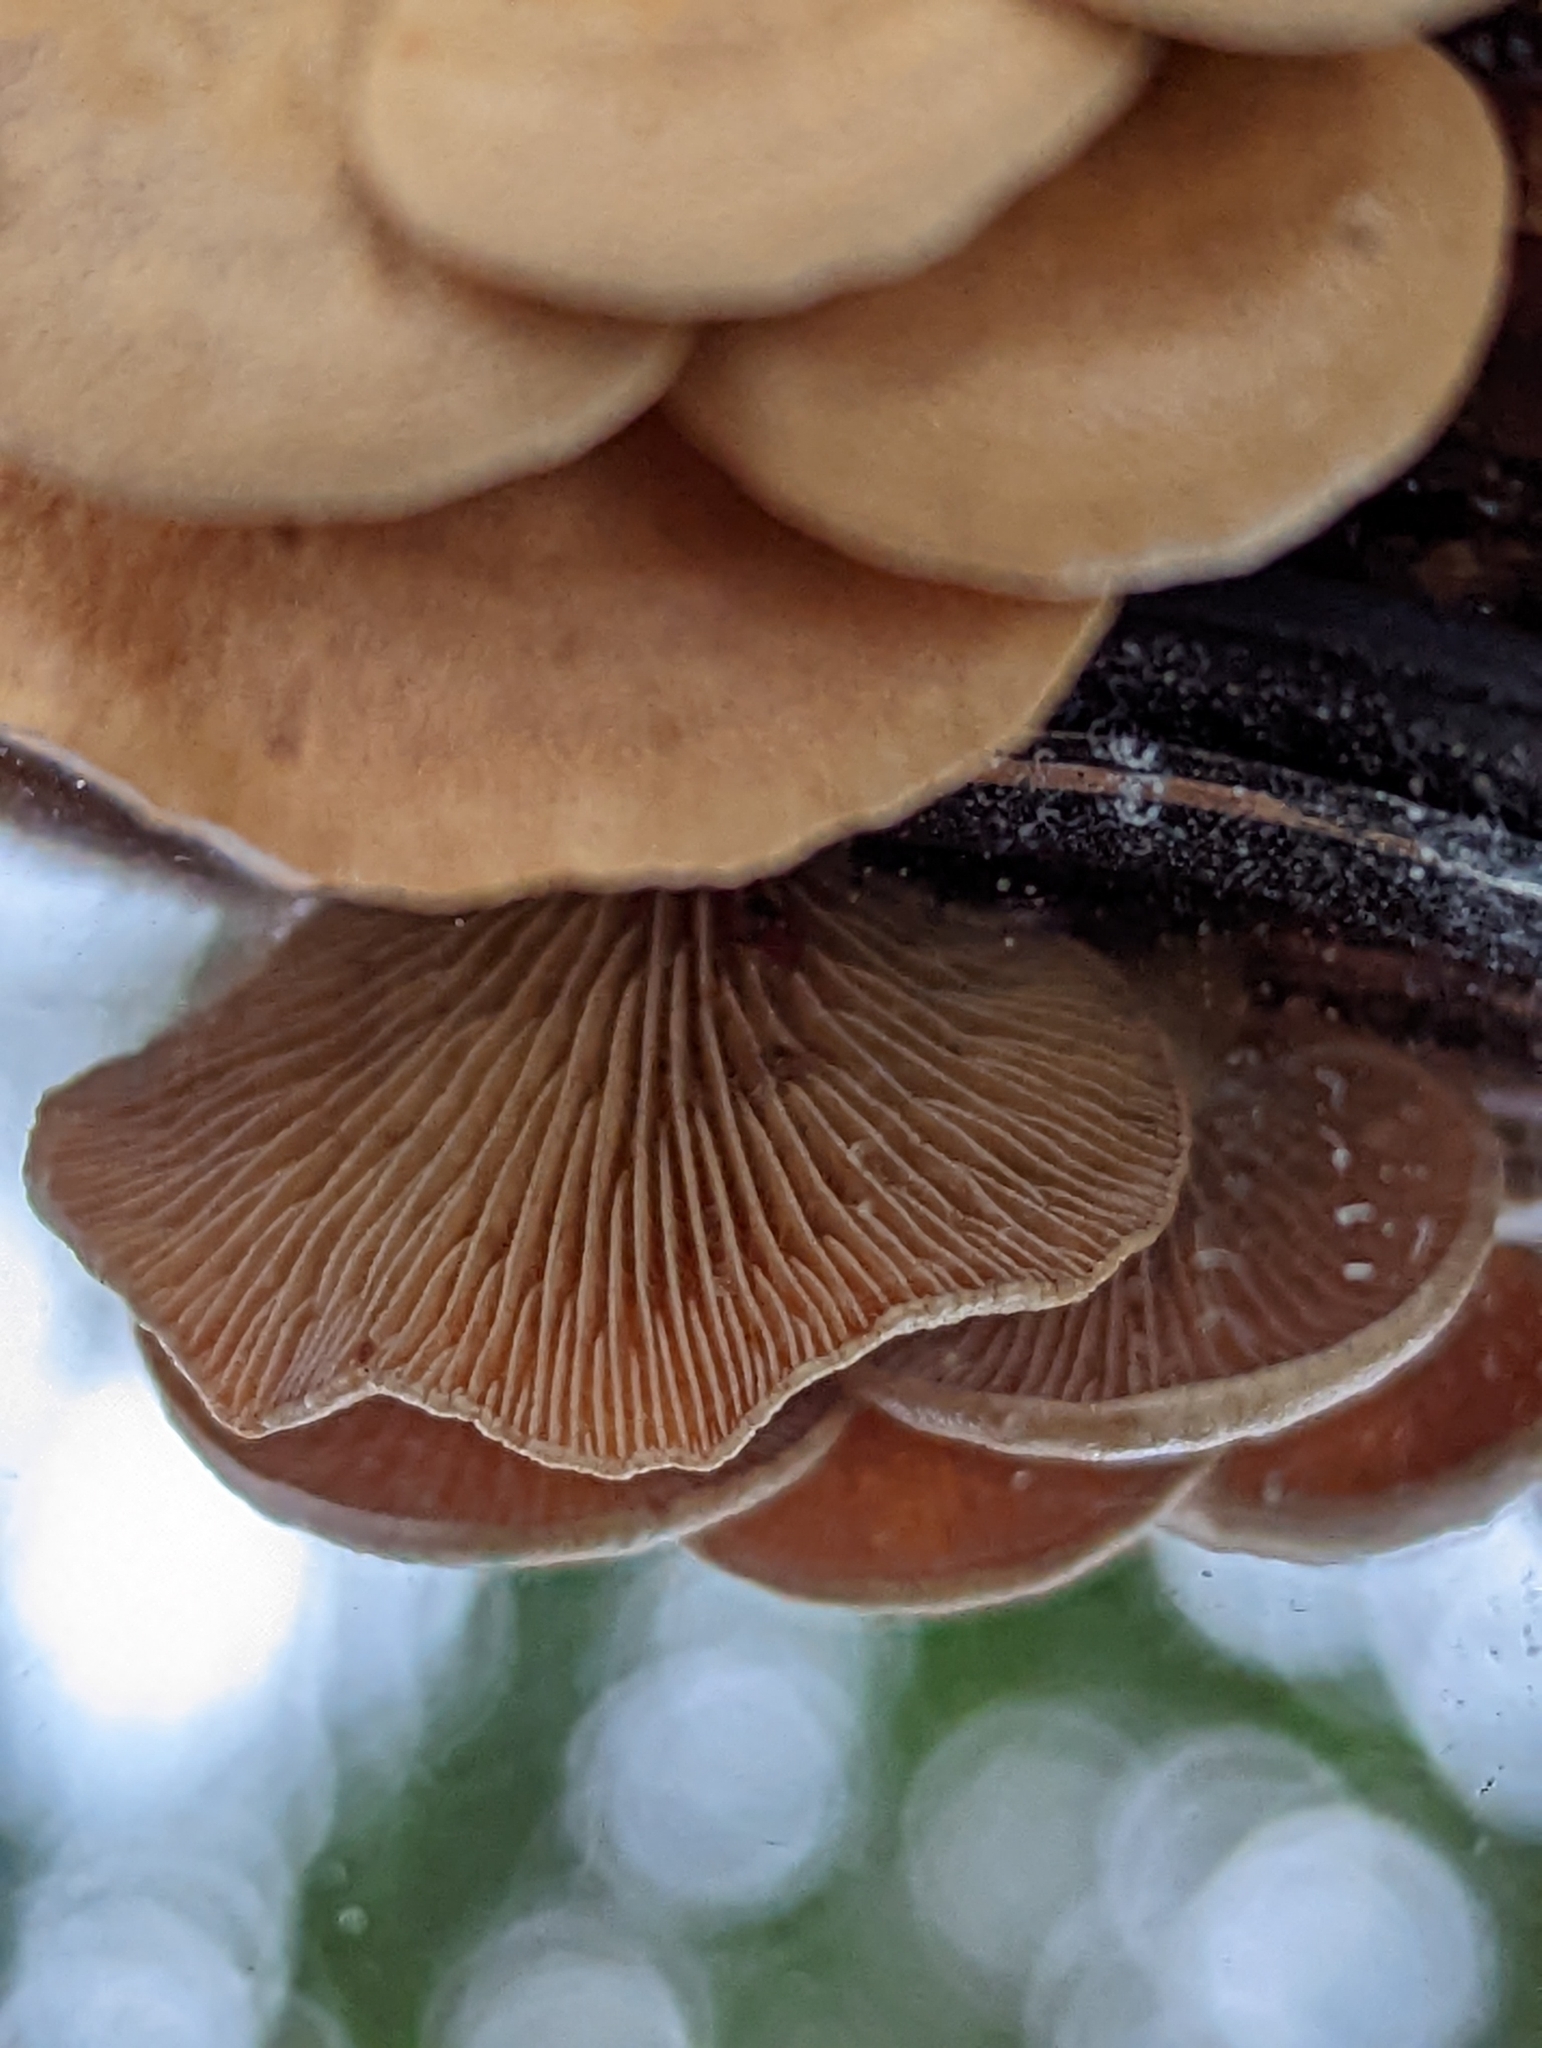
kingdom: Fungi
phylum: Basidiomycota
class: Agaricomycetes
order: Agaricales
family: Mycenaceae
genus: Panellus
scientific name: Panellus stipticus
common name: Bitter oysterling
